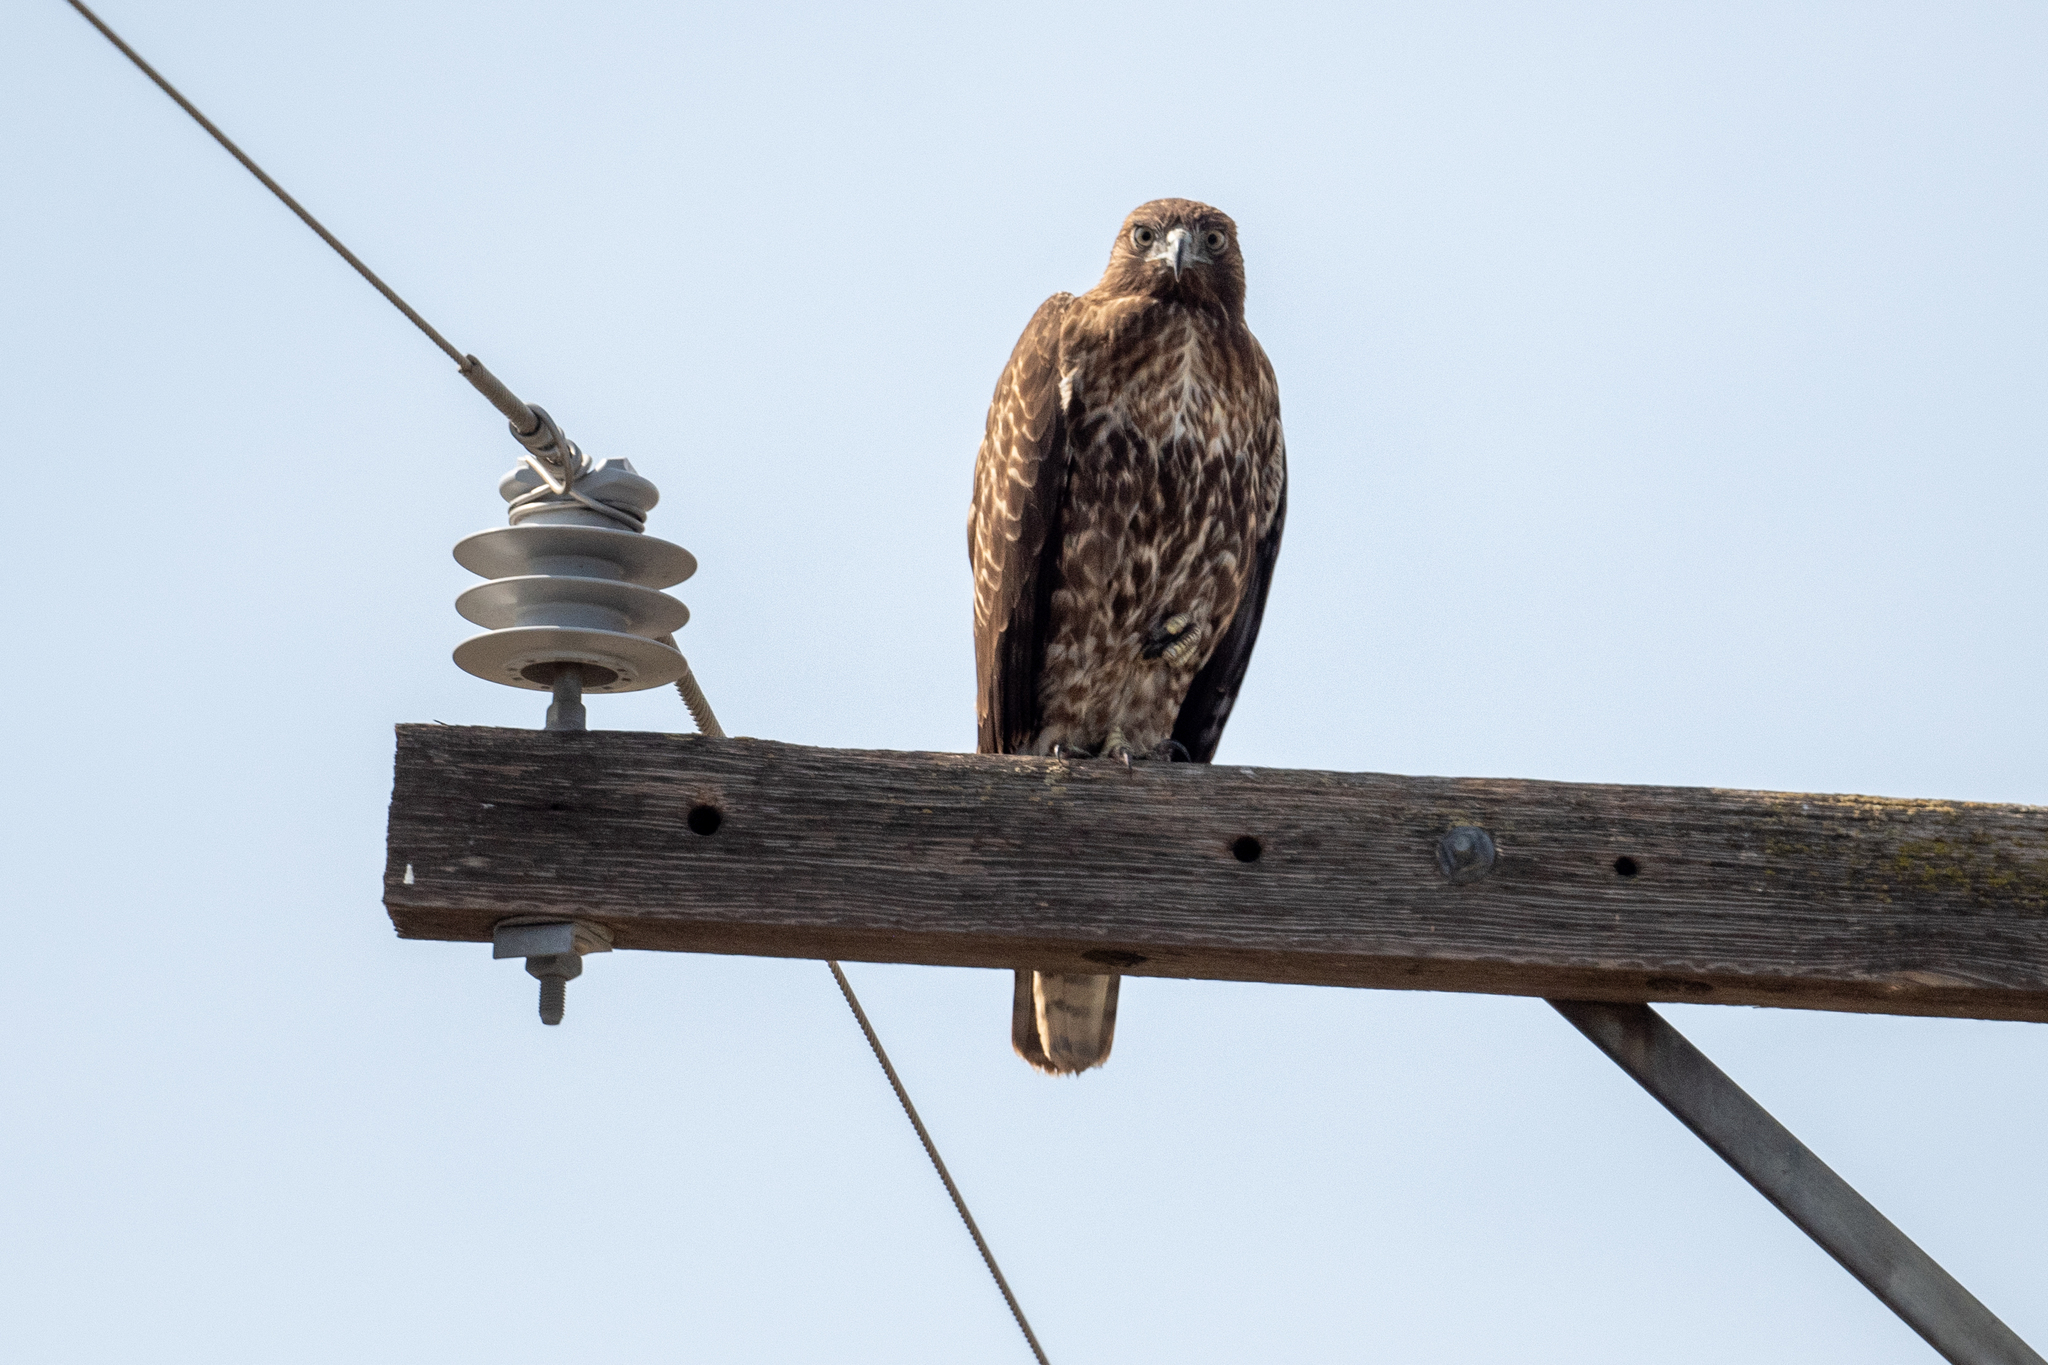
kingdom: Animalia
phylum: Chordata
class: Aves
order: Accipitriformes
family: Accipitridae
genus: Buteo
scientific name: Buteo jamaicensis
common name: Red-tailed hawk
